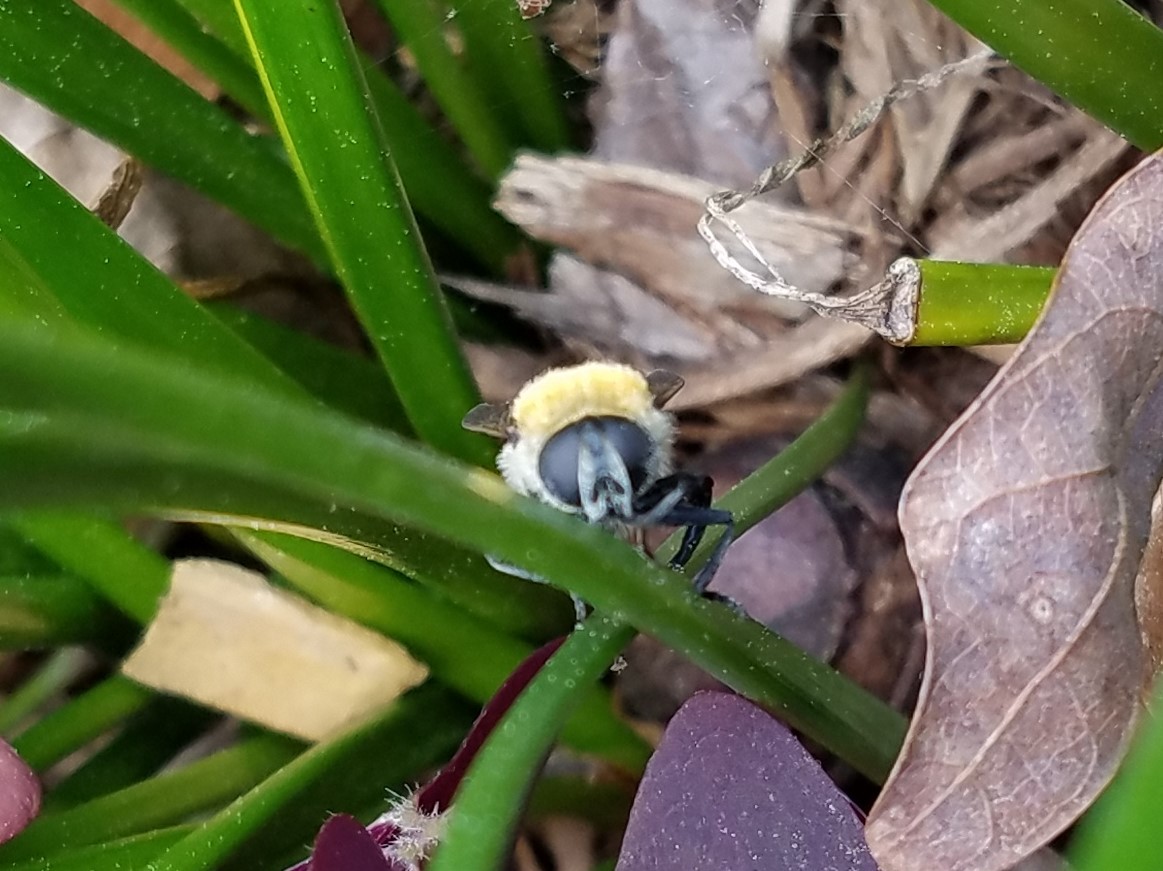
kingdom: Animalia
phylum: Arthropoda
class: Insecta
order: Diptera
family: Syrphidae
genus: Merodon
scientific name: Merodon equestris
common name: Greater bulb-fly
